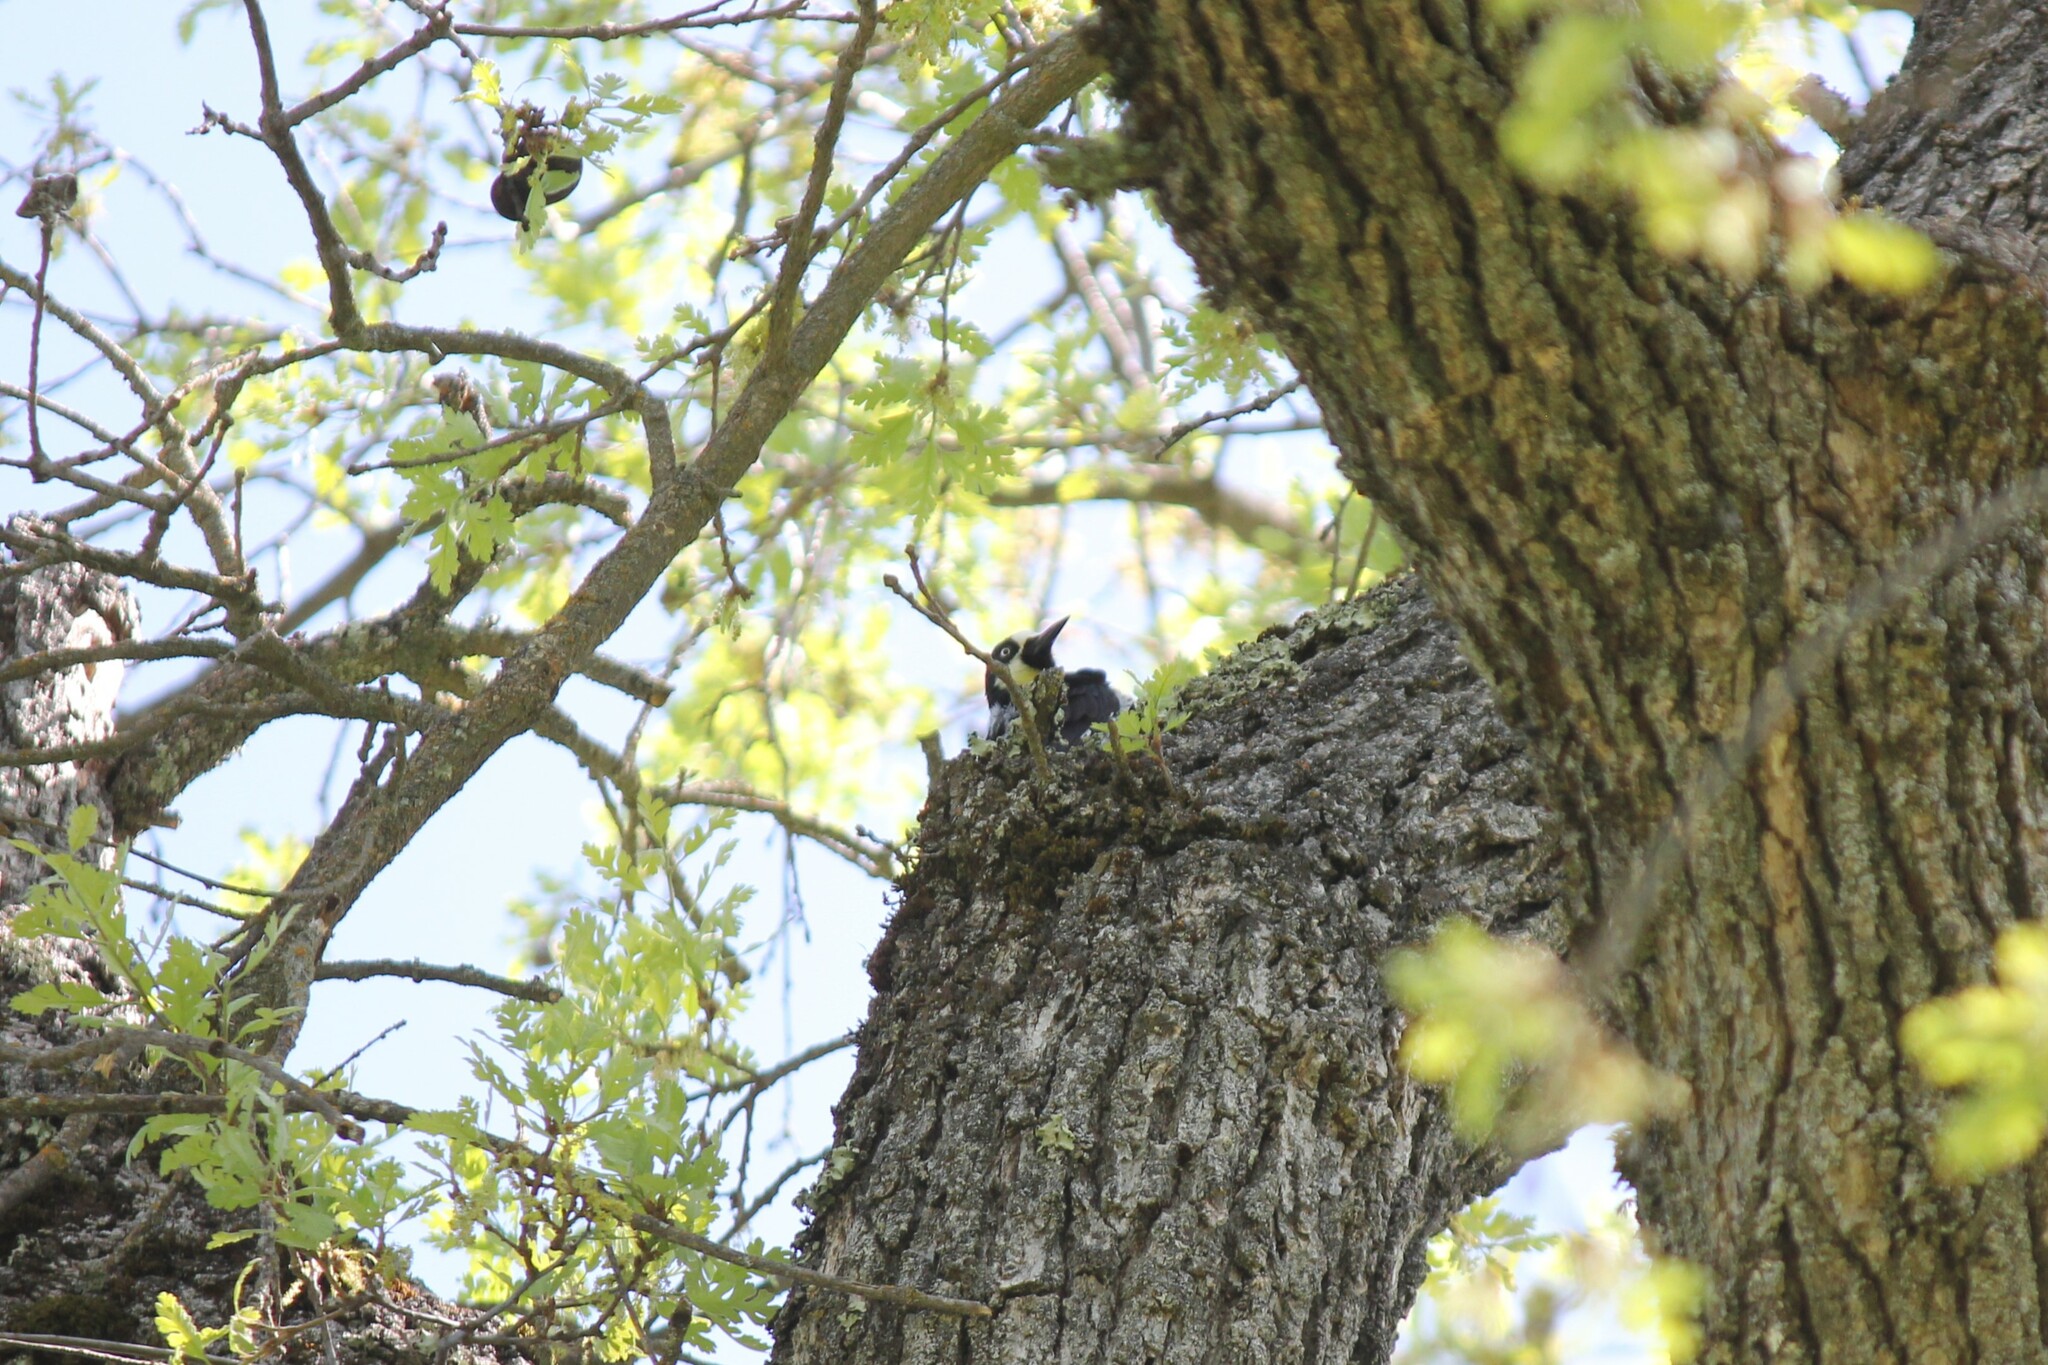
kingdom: Animalia
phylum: Chordata
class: Aves
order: Piciformes
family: Picidae
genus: Melanerpes
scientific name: Melanerpes formicivorus
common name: Acorn woodpecker
